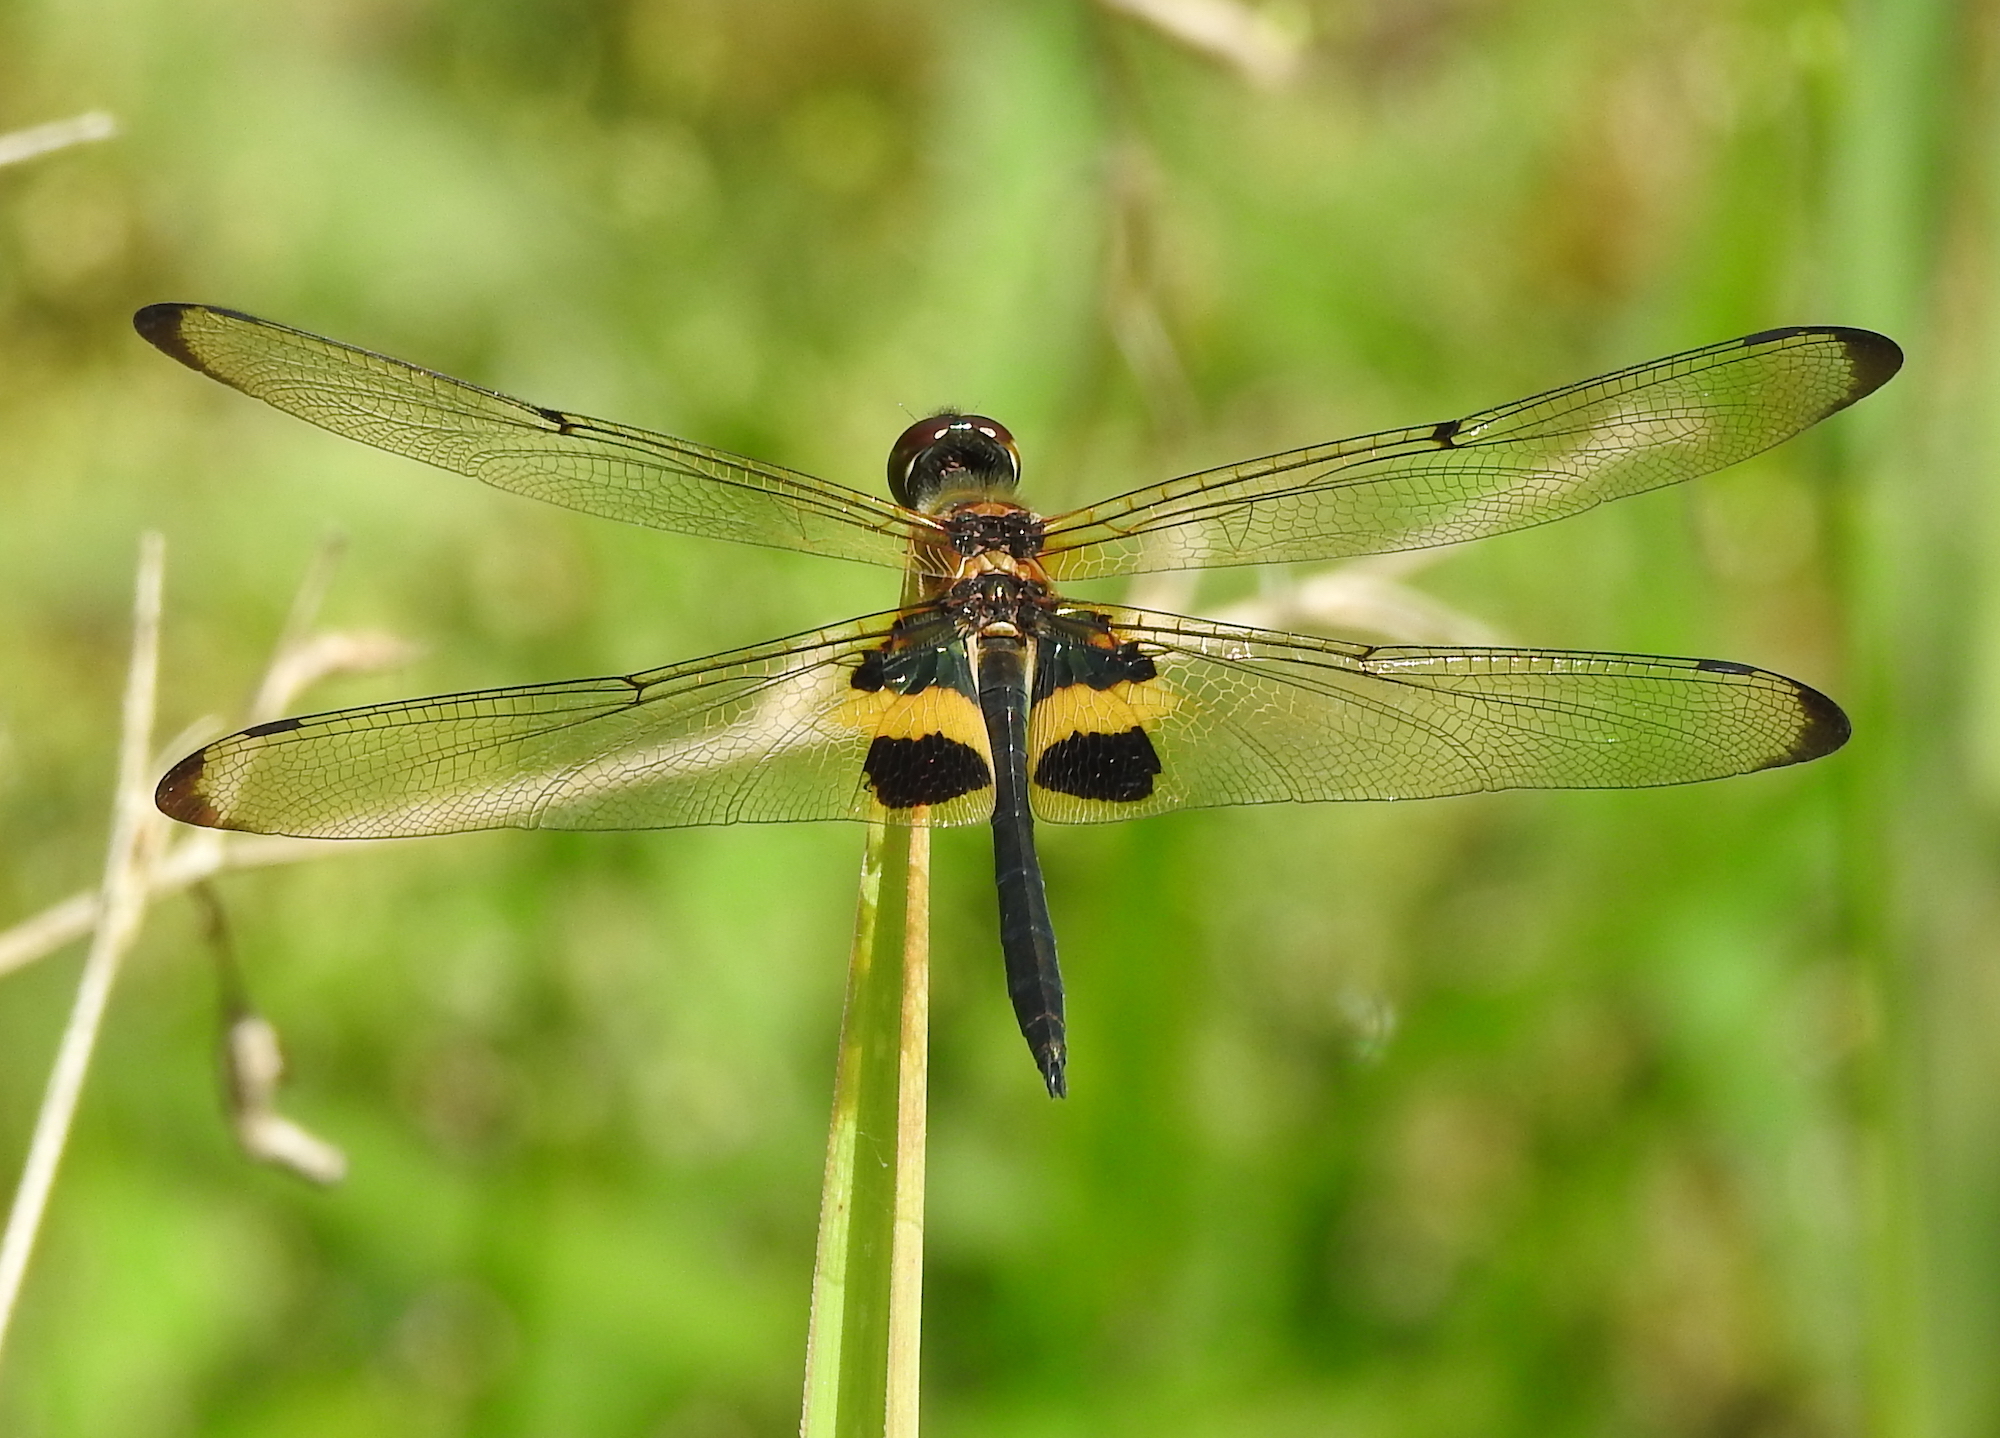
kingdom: Animalia
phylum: Arthropoda
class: Insecta
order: Odonata
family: Libellulidae
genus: Rhyothemis
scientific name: Rhyothemis phyllis
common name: Yellow-barred flutterer
